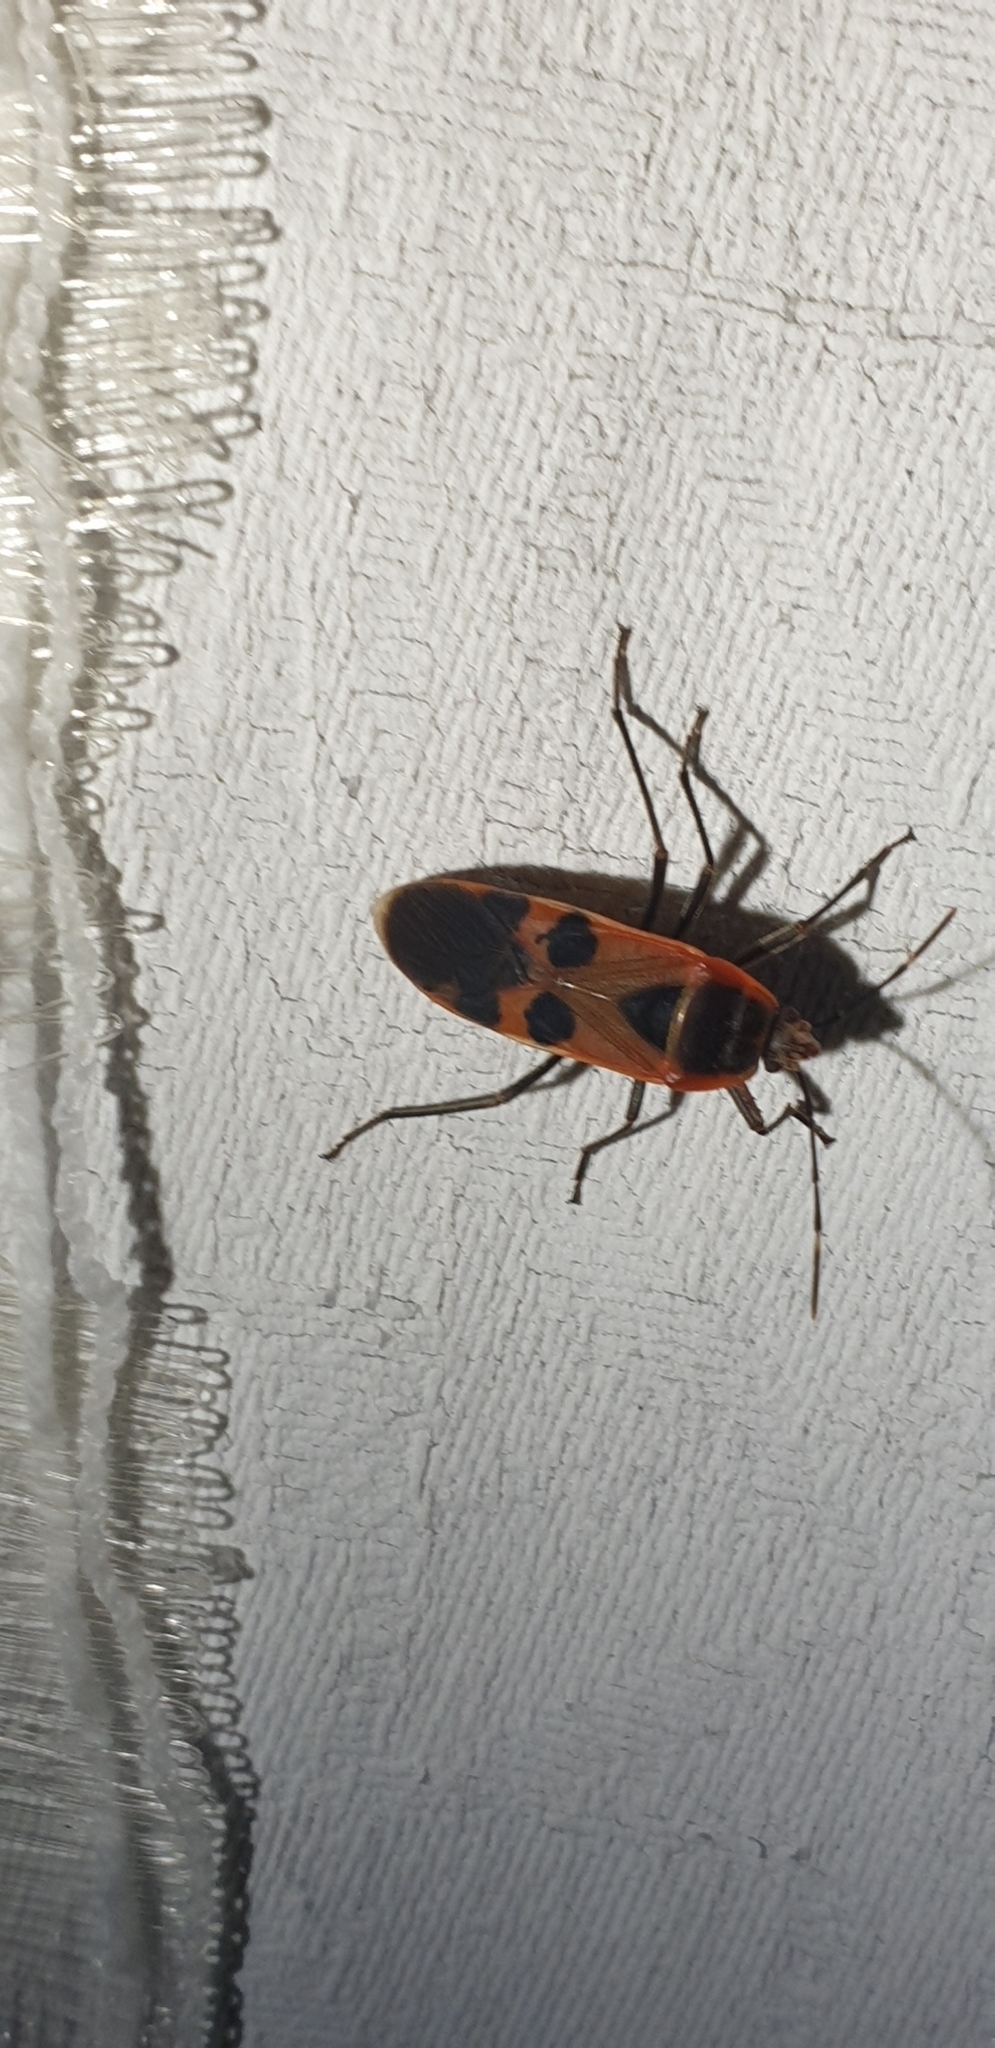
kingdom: Animalia
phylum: Arthropoda
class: Insecta
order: Hemiptera
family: Largidae
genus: Physopelta
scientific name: Physopelta gutta
